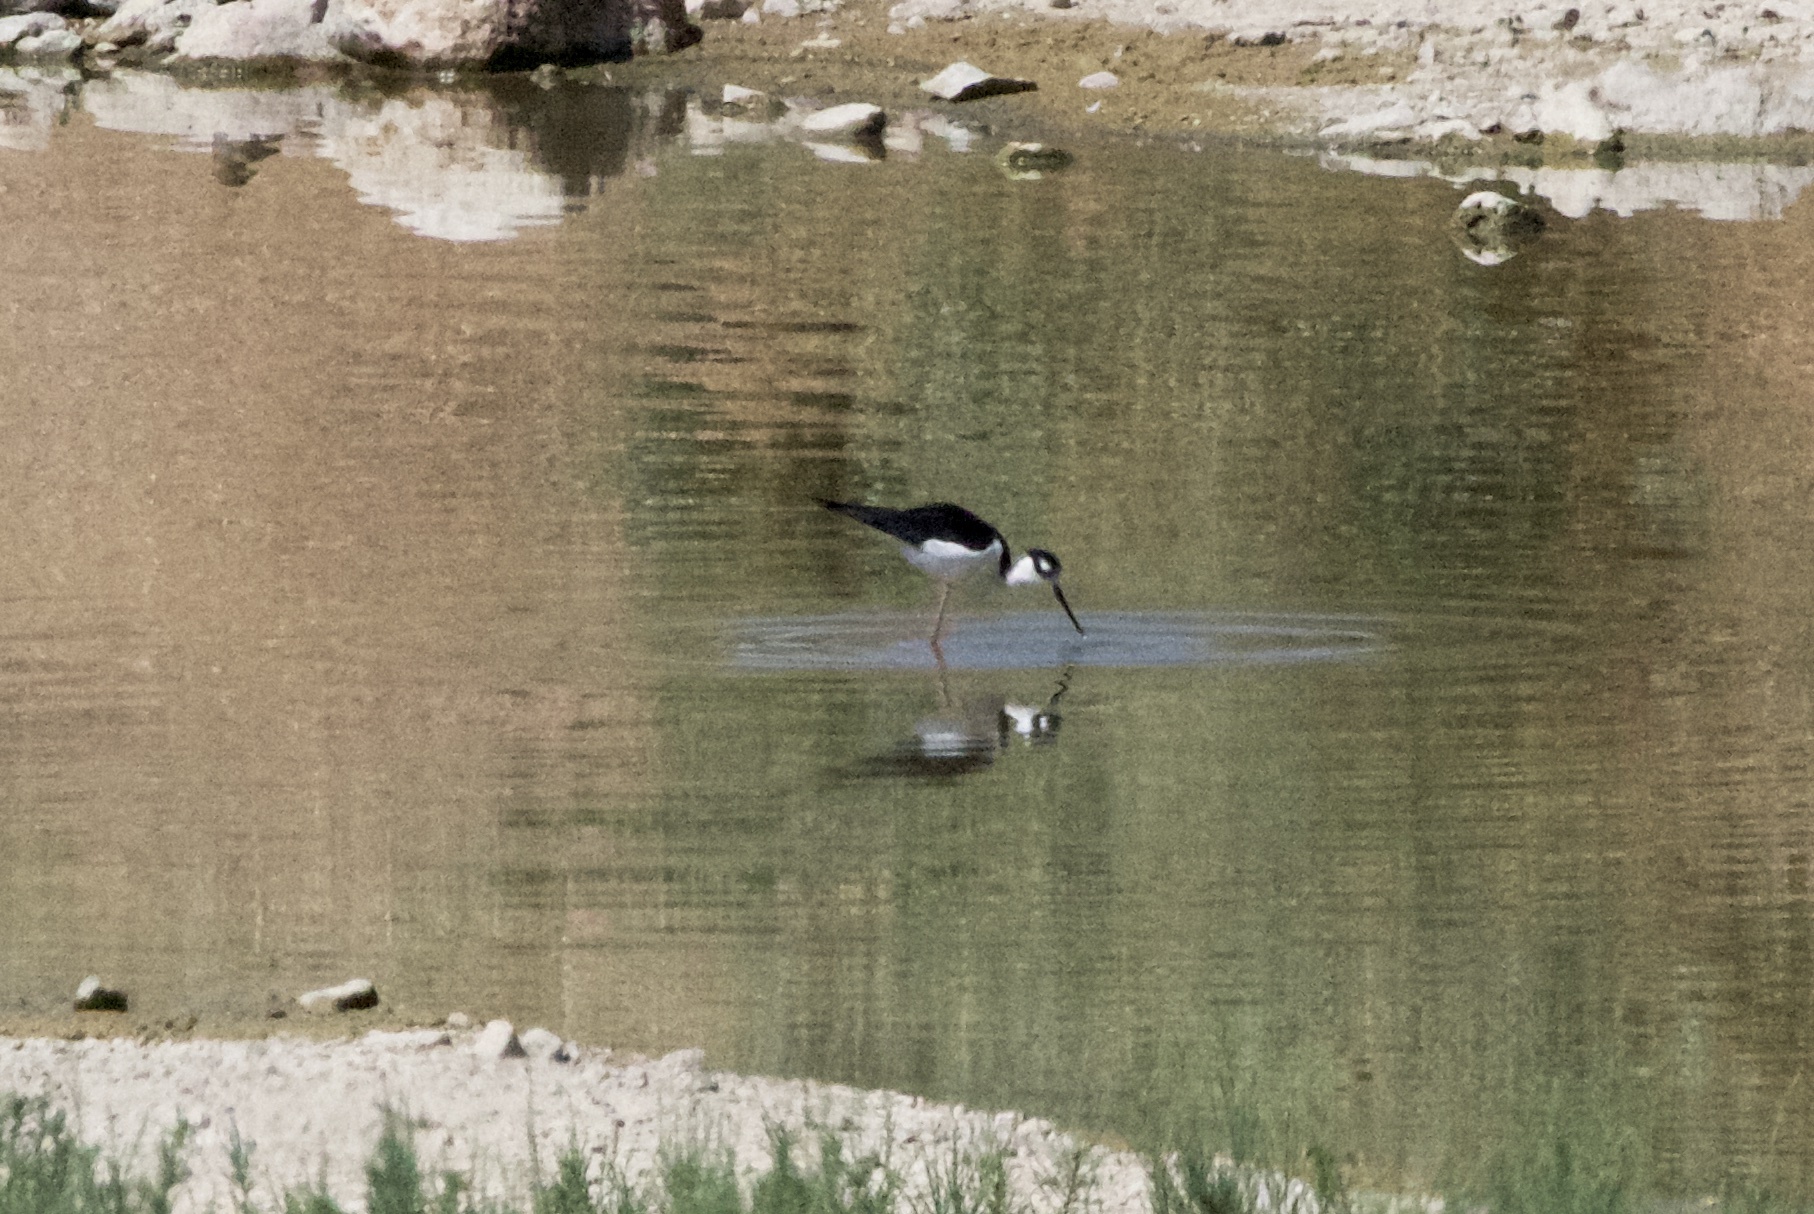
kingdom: Animalia
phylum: Chordata
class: Aves
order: Charadriiformes
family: Recurvirostridae
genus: Himantopus
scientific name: Himantopus mexicanus
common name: Black-necked stilt
